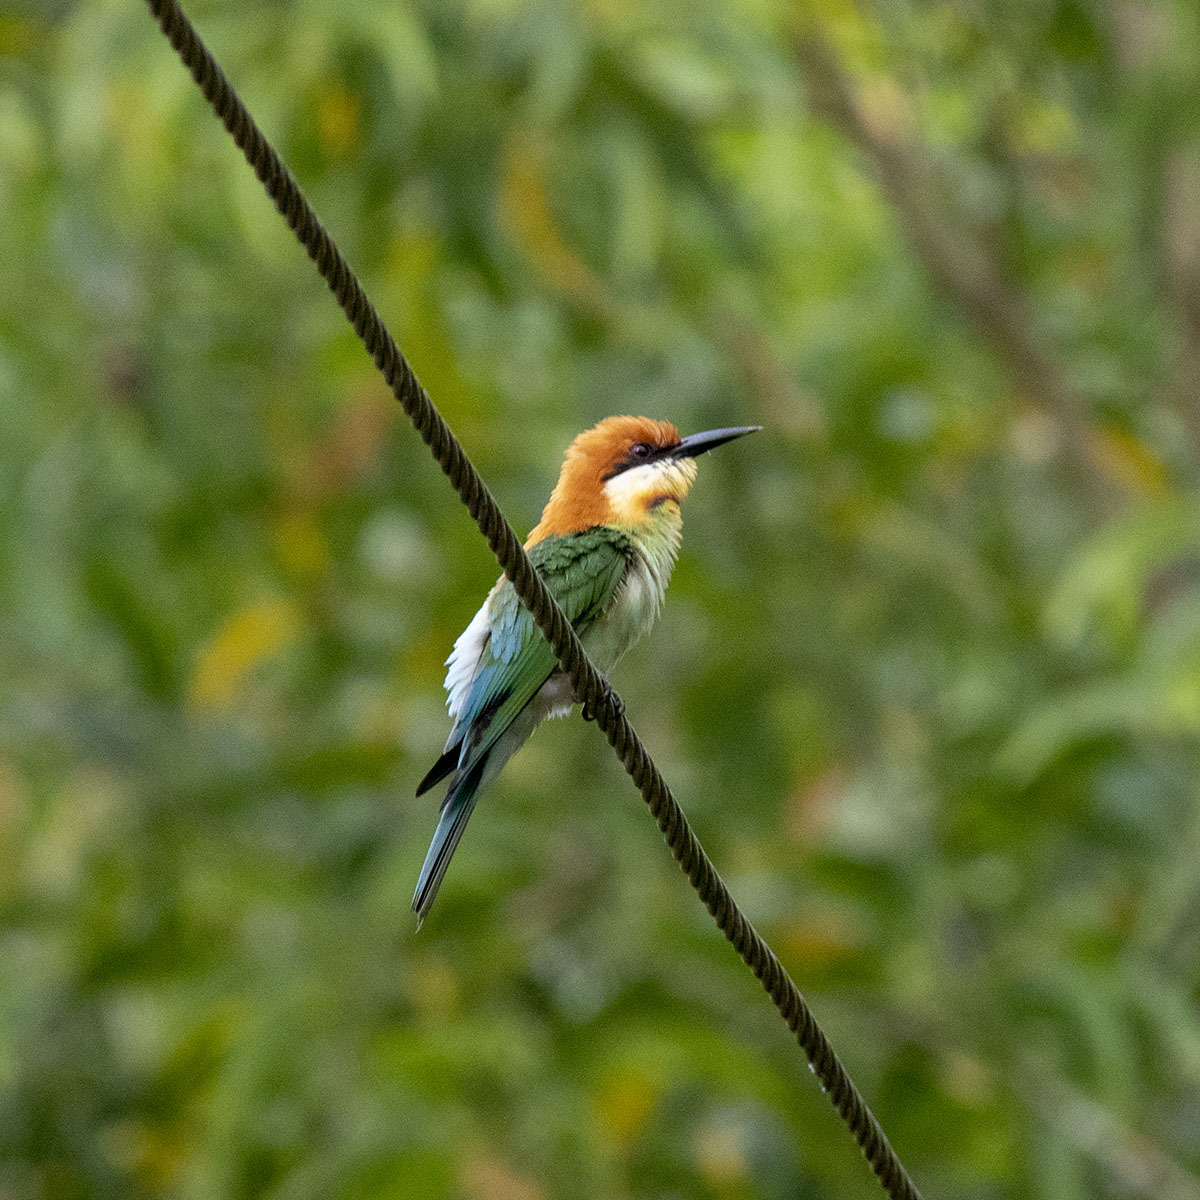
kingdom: Animalia
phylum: Chordata
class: Aves
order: Coraciiformes
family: Meropidae
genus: Merops
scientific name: Merops leschenaulti
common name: Chestnut-headed bee-eater
